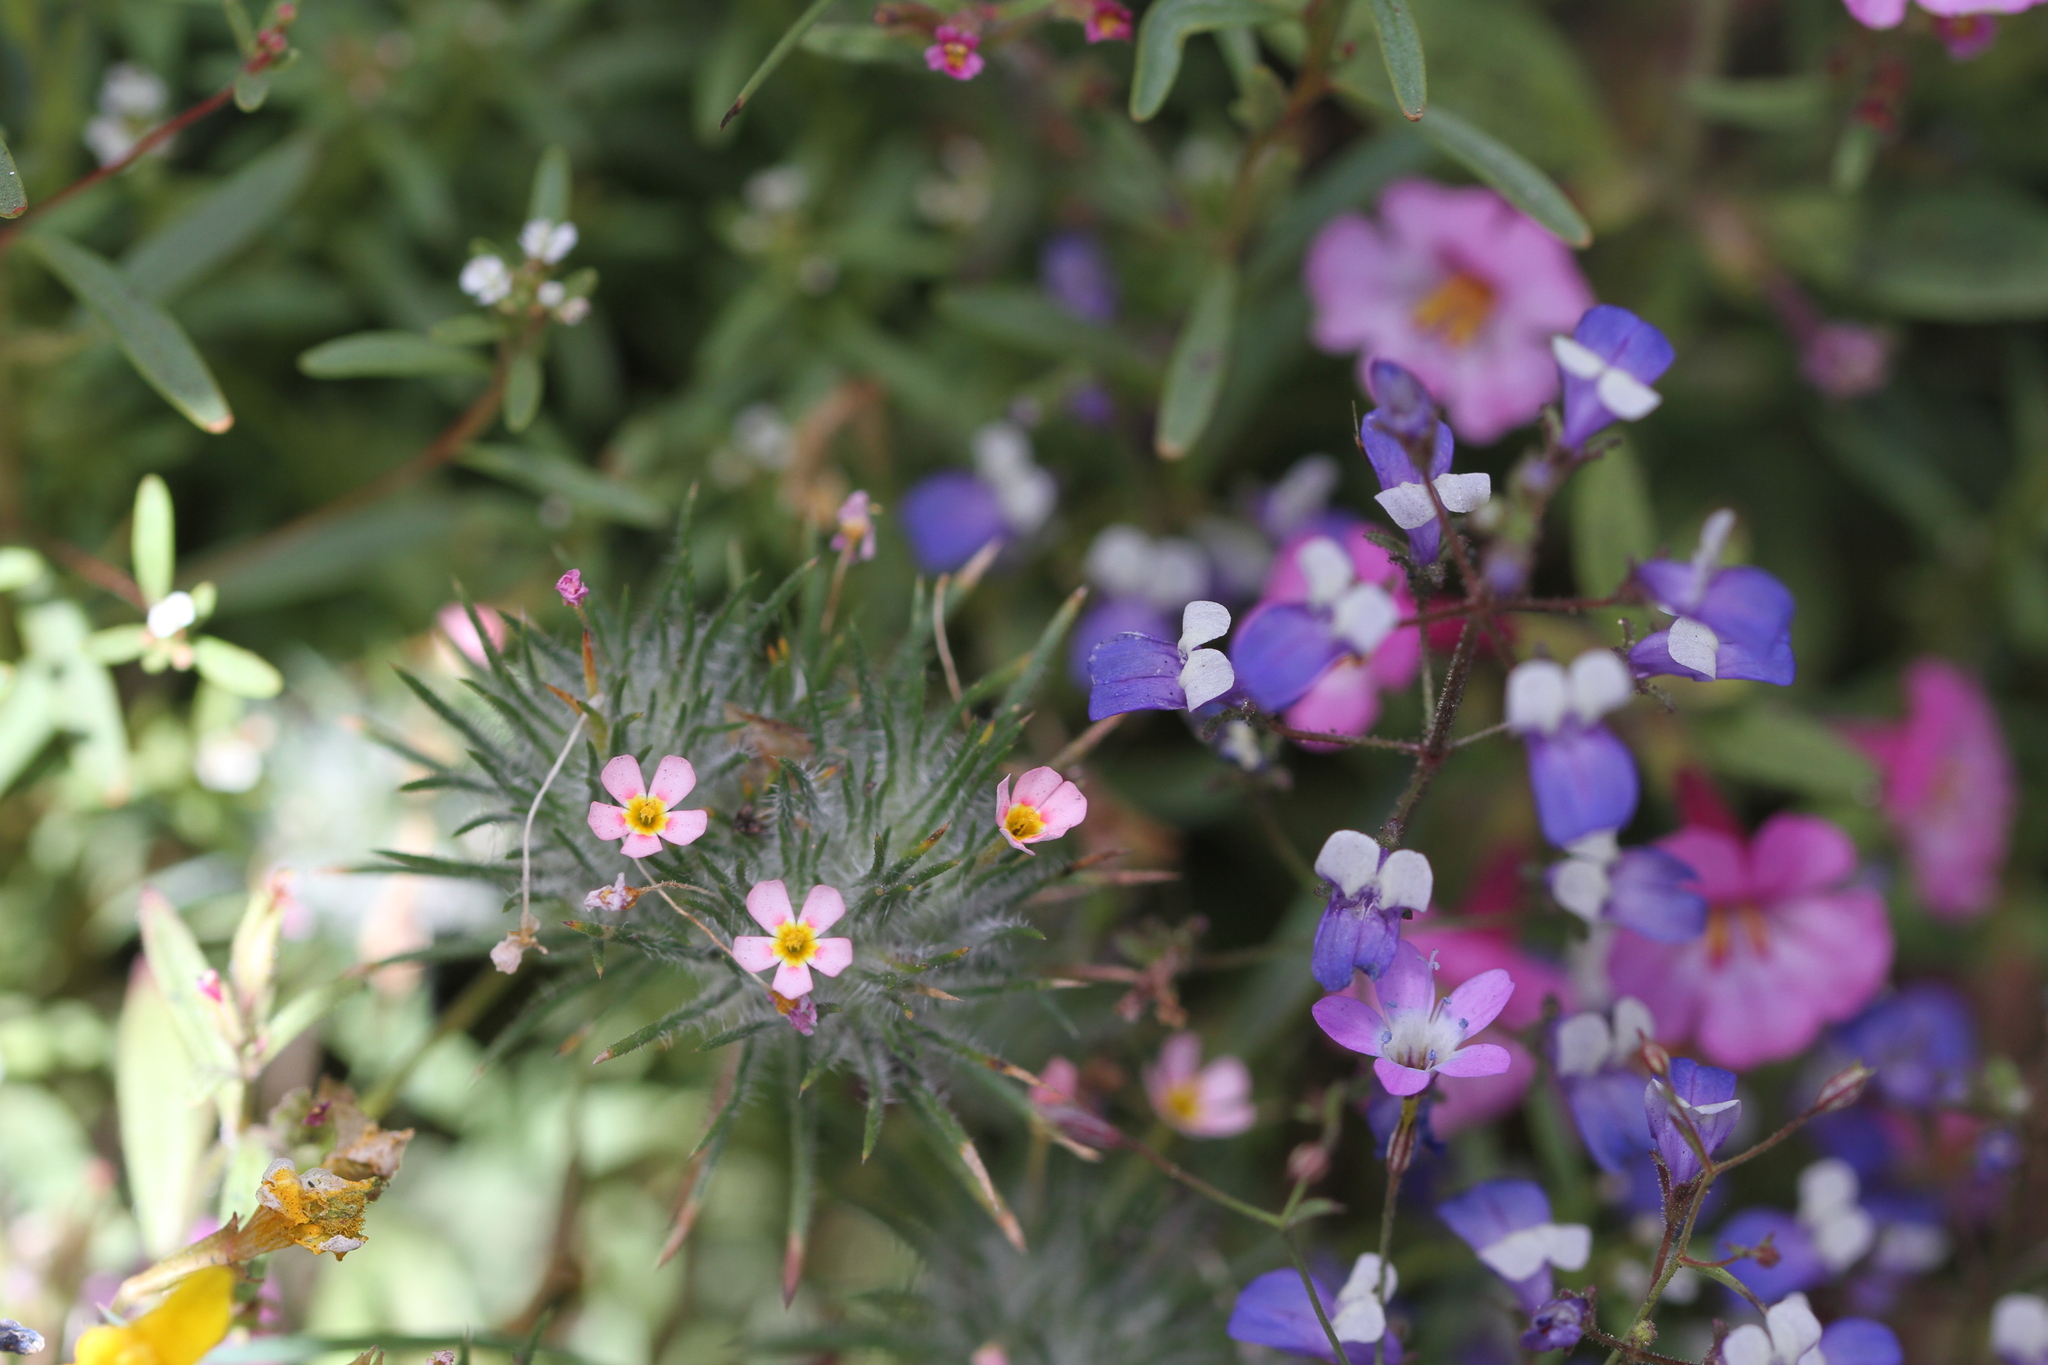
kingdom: Plantae
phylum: Tracheophyta
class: Magnoliopsida
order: Ericales
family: Polemoniaceae
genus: Leptosiphon
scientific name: Leptosiphon ciliatus
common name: Whiskerbrush
